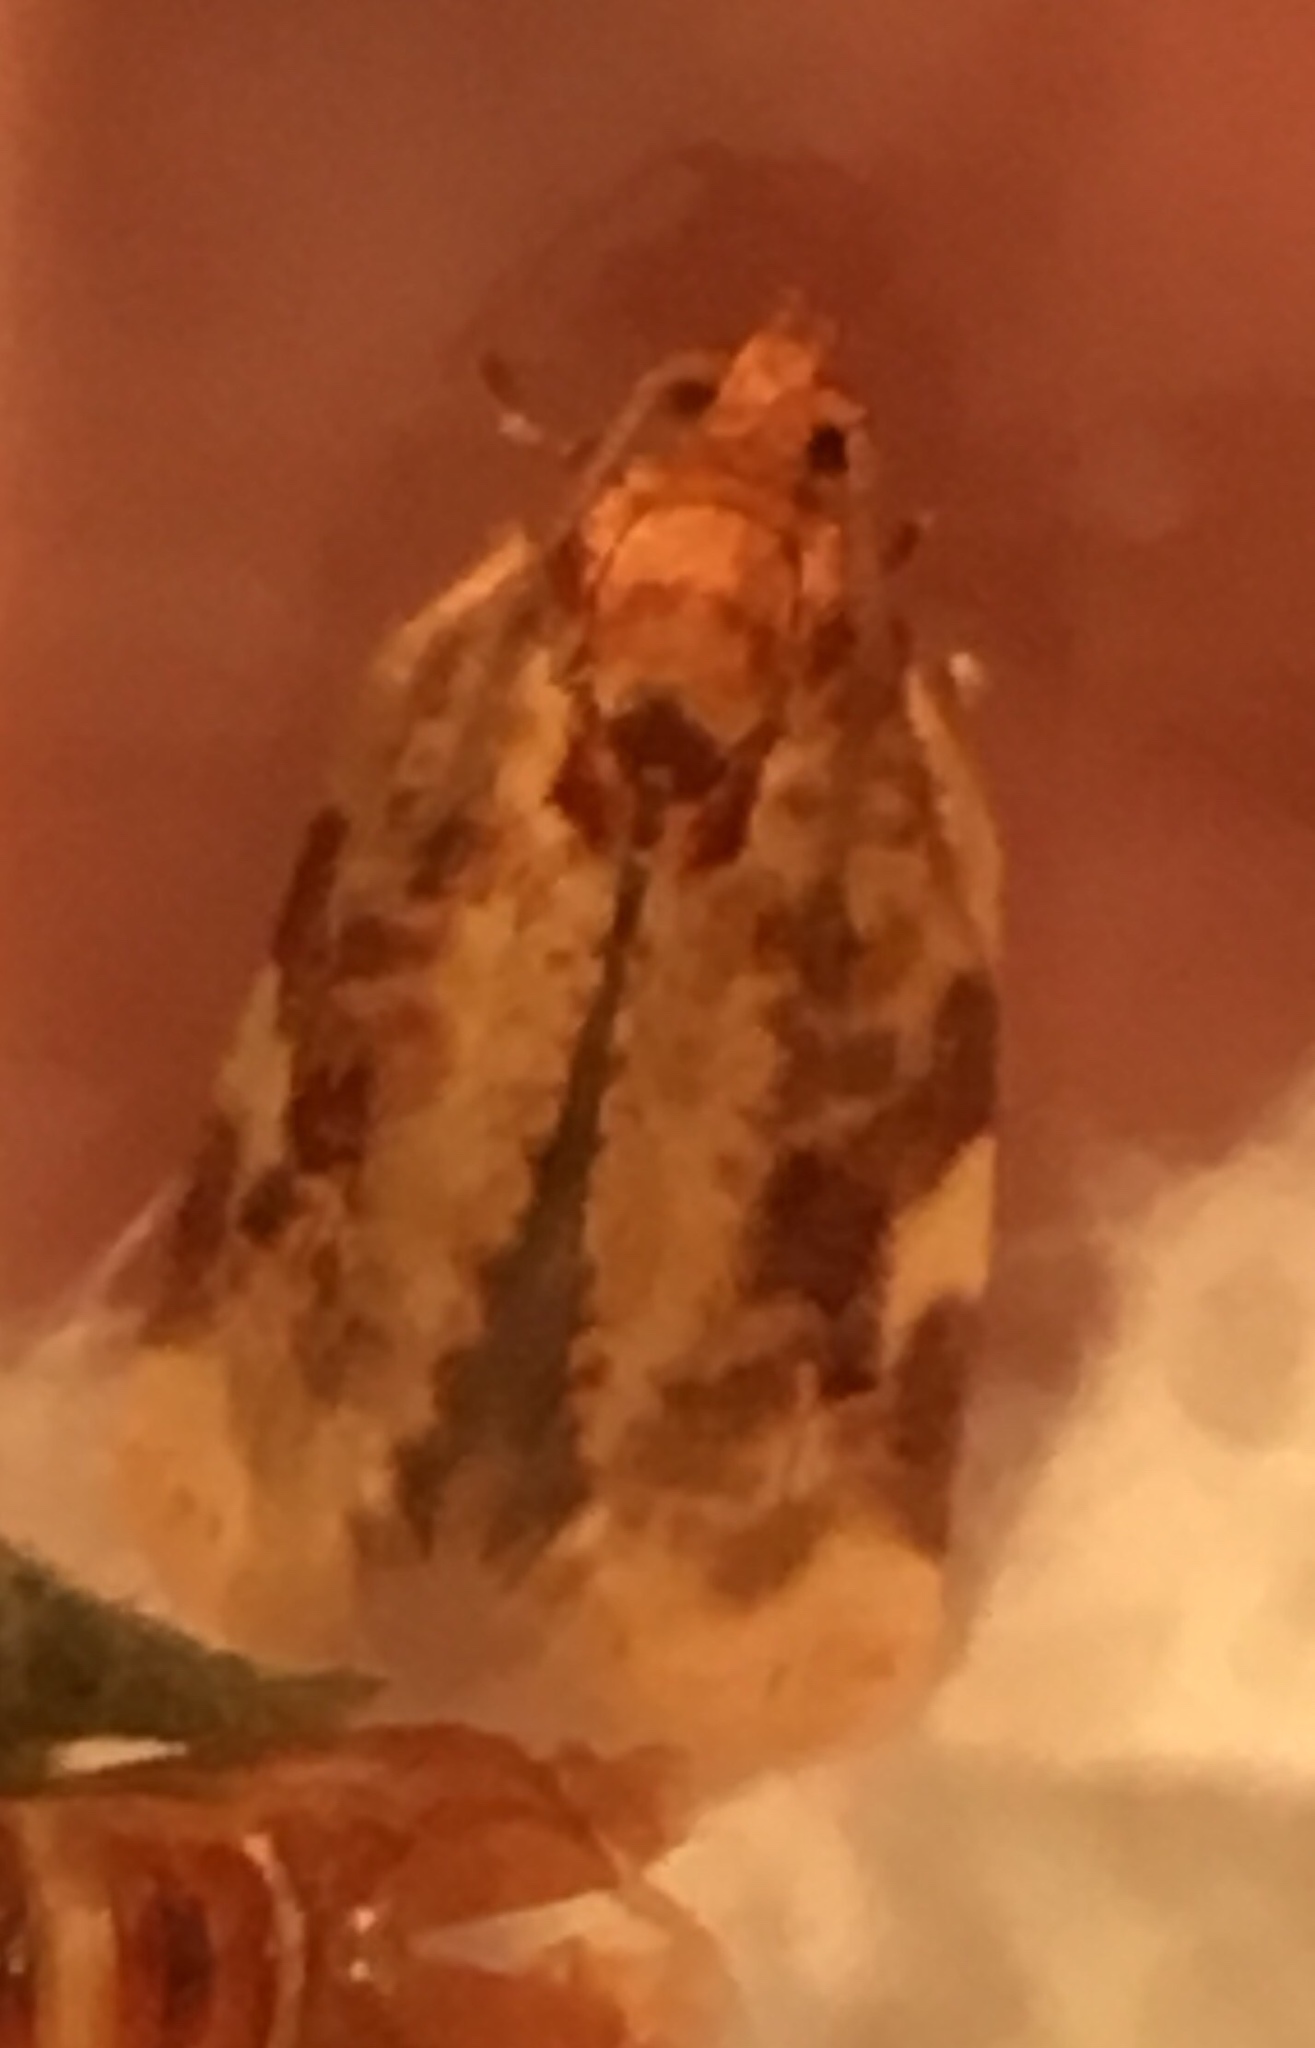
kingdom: Animalia
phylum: Arthropoda
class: Insecta
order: Lepidoptera
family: Tortricidae
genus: Archips
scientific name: Archips argyrospila
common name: Fruit-tree leafroller moth
